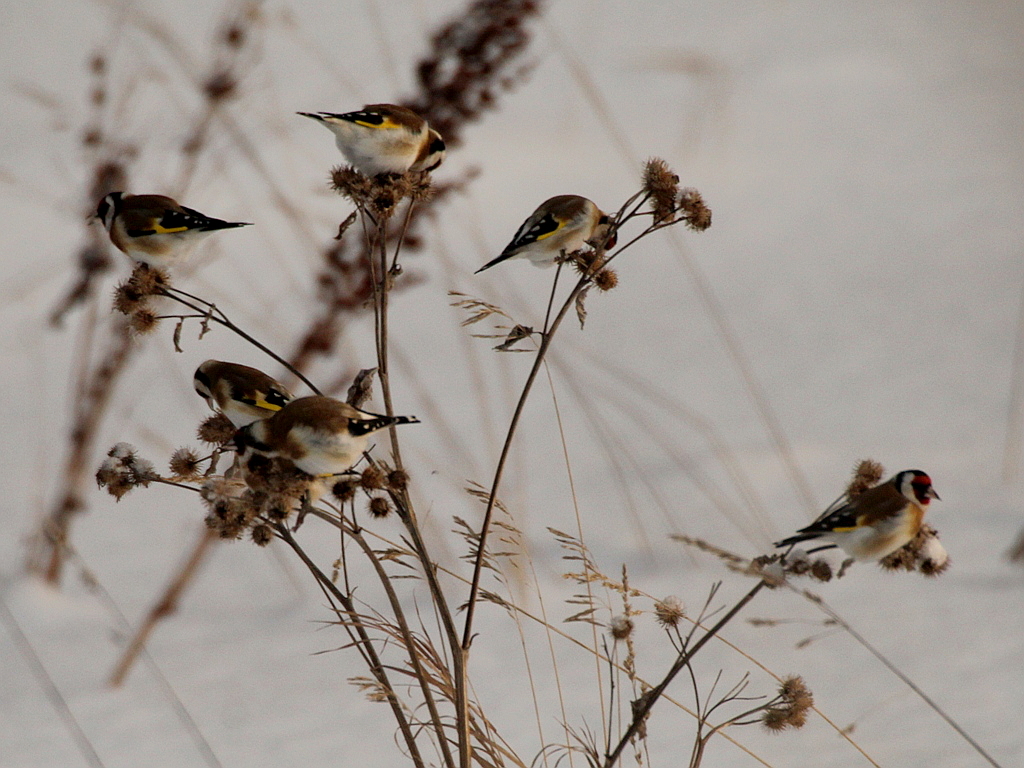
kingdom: Animalia
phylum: Chordata
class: Aves
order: Passeriformes
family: Fringillidae
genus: Carduelis
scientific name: Carduelis carduelis
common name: European goldfinch
